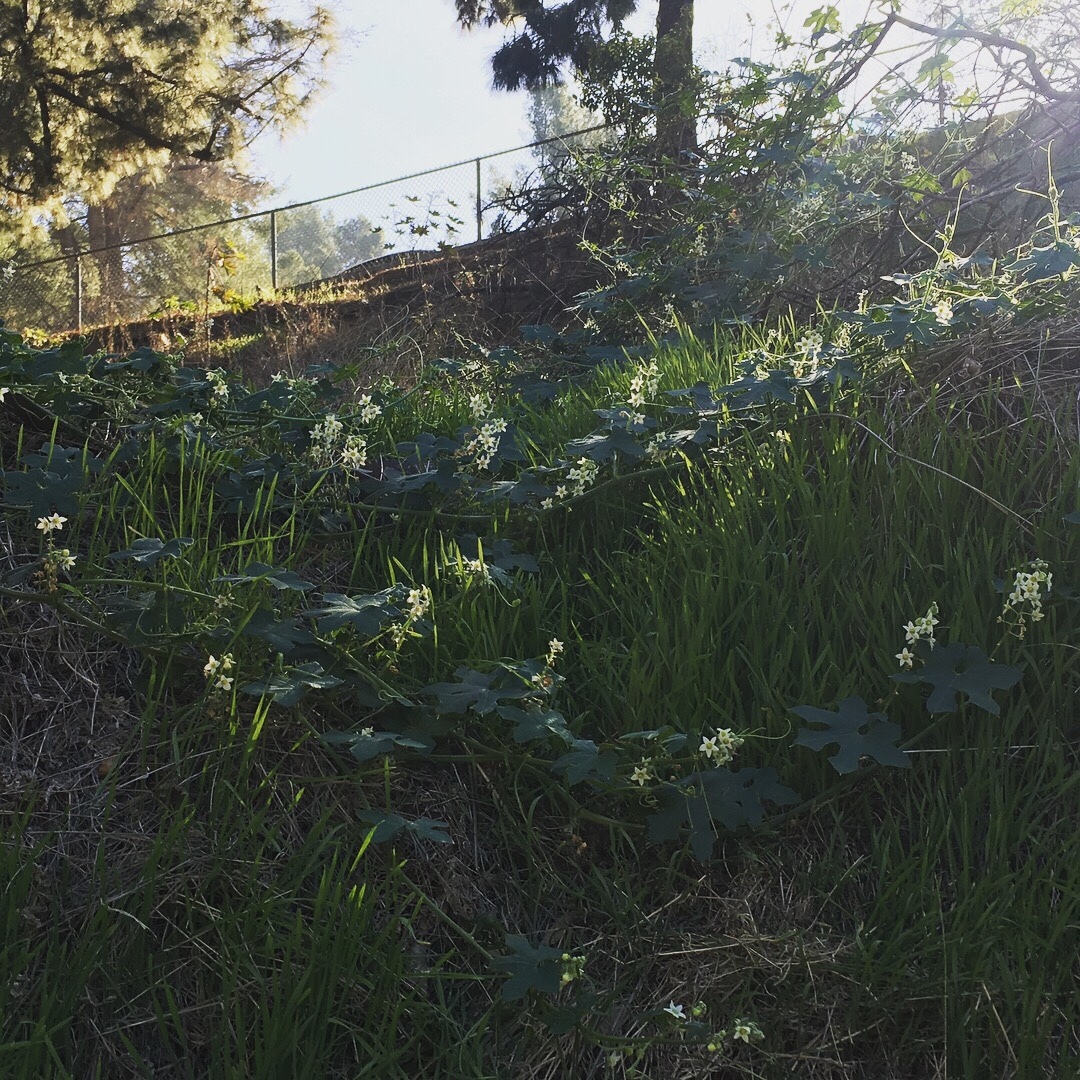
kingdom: Plantae
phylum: Tracheophyta
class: Magnoliopsida
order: Cucurbitales
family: Cucurbitaceae
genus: Marah
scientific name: Marah macrocarpa
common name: Cucamonga manroot
